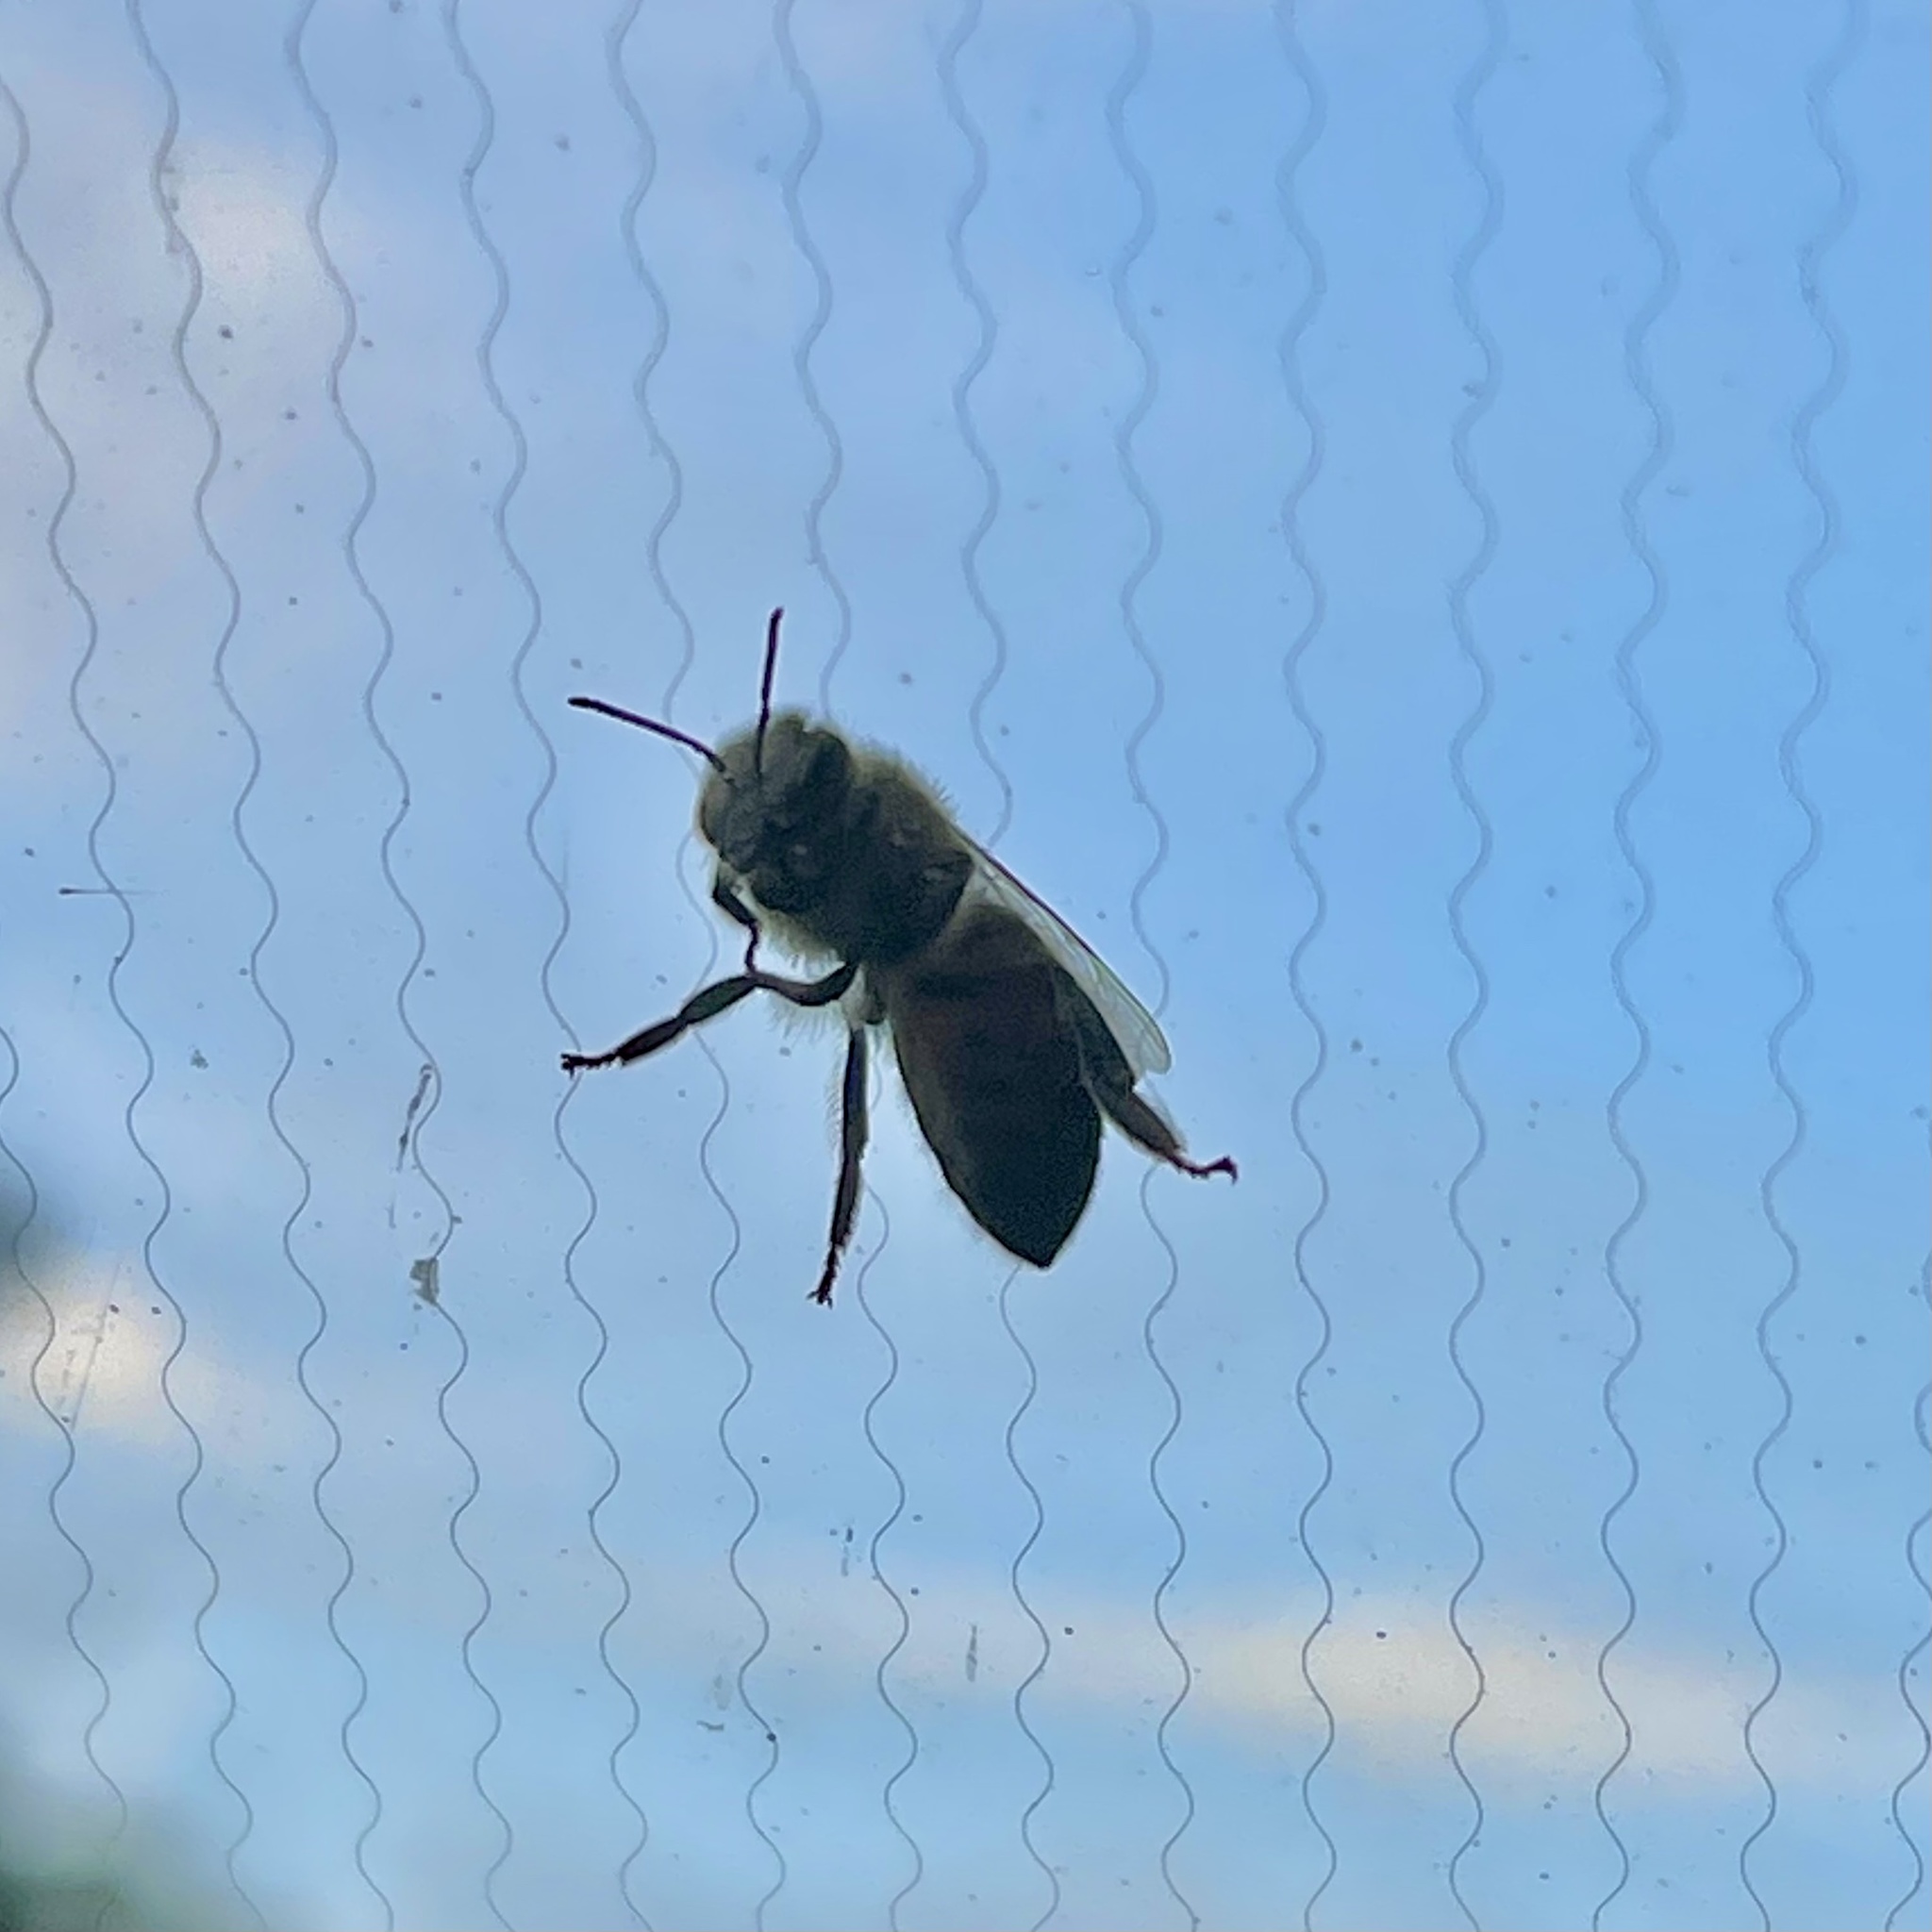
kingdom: Animalia
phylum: Arthropoda
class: Insecta
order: Hymenoptera
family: Apidae
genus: Apis
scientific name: Apis mellifera
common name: Honey bee
